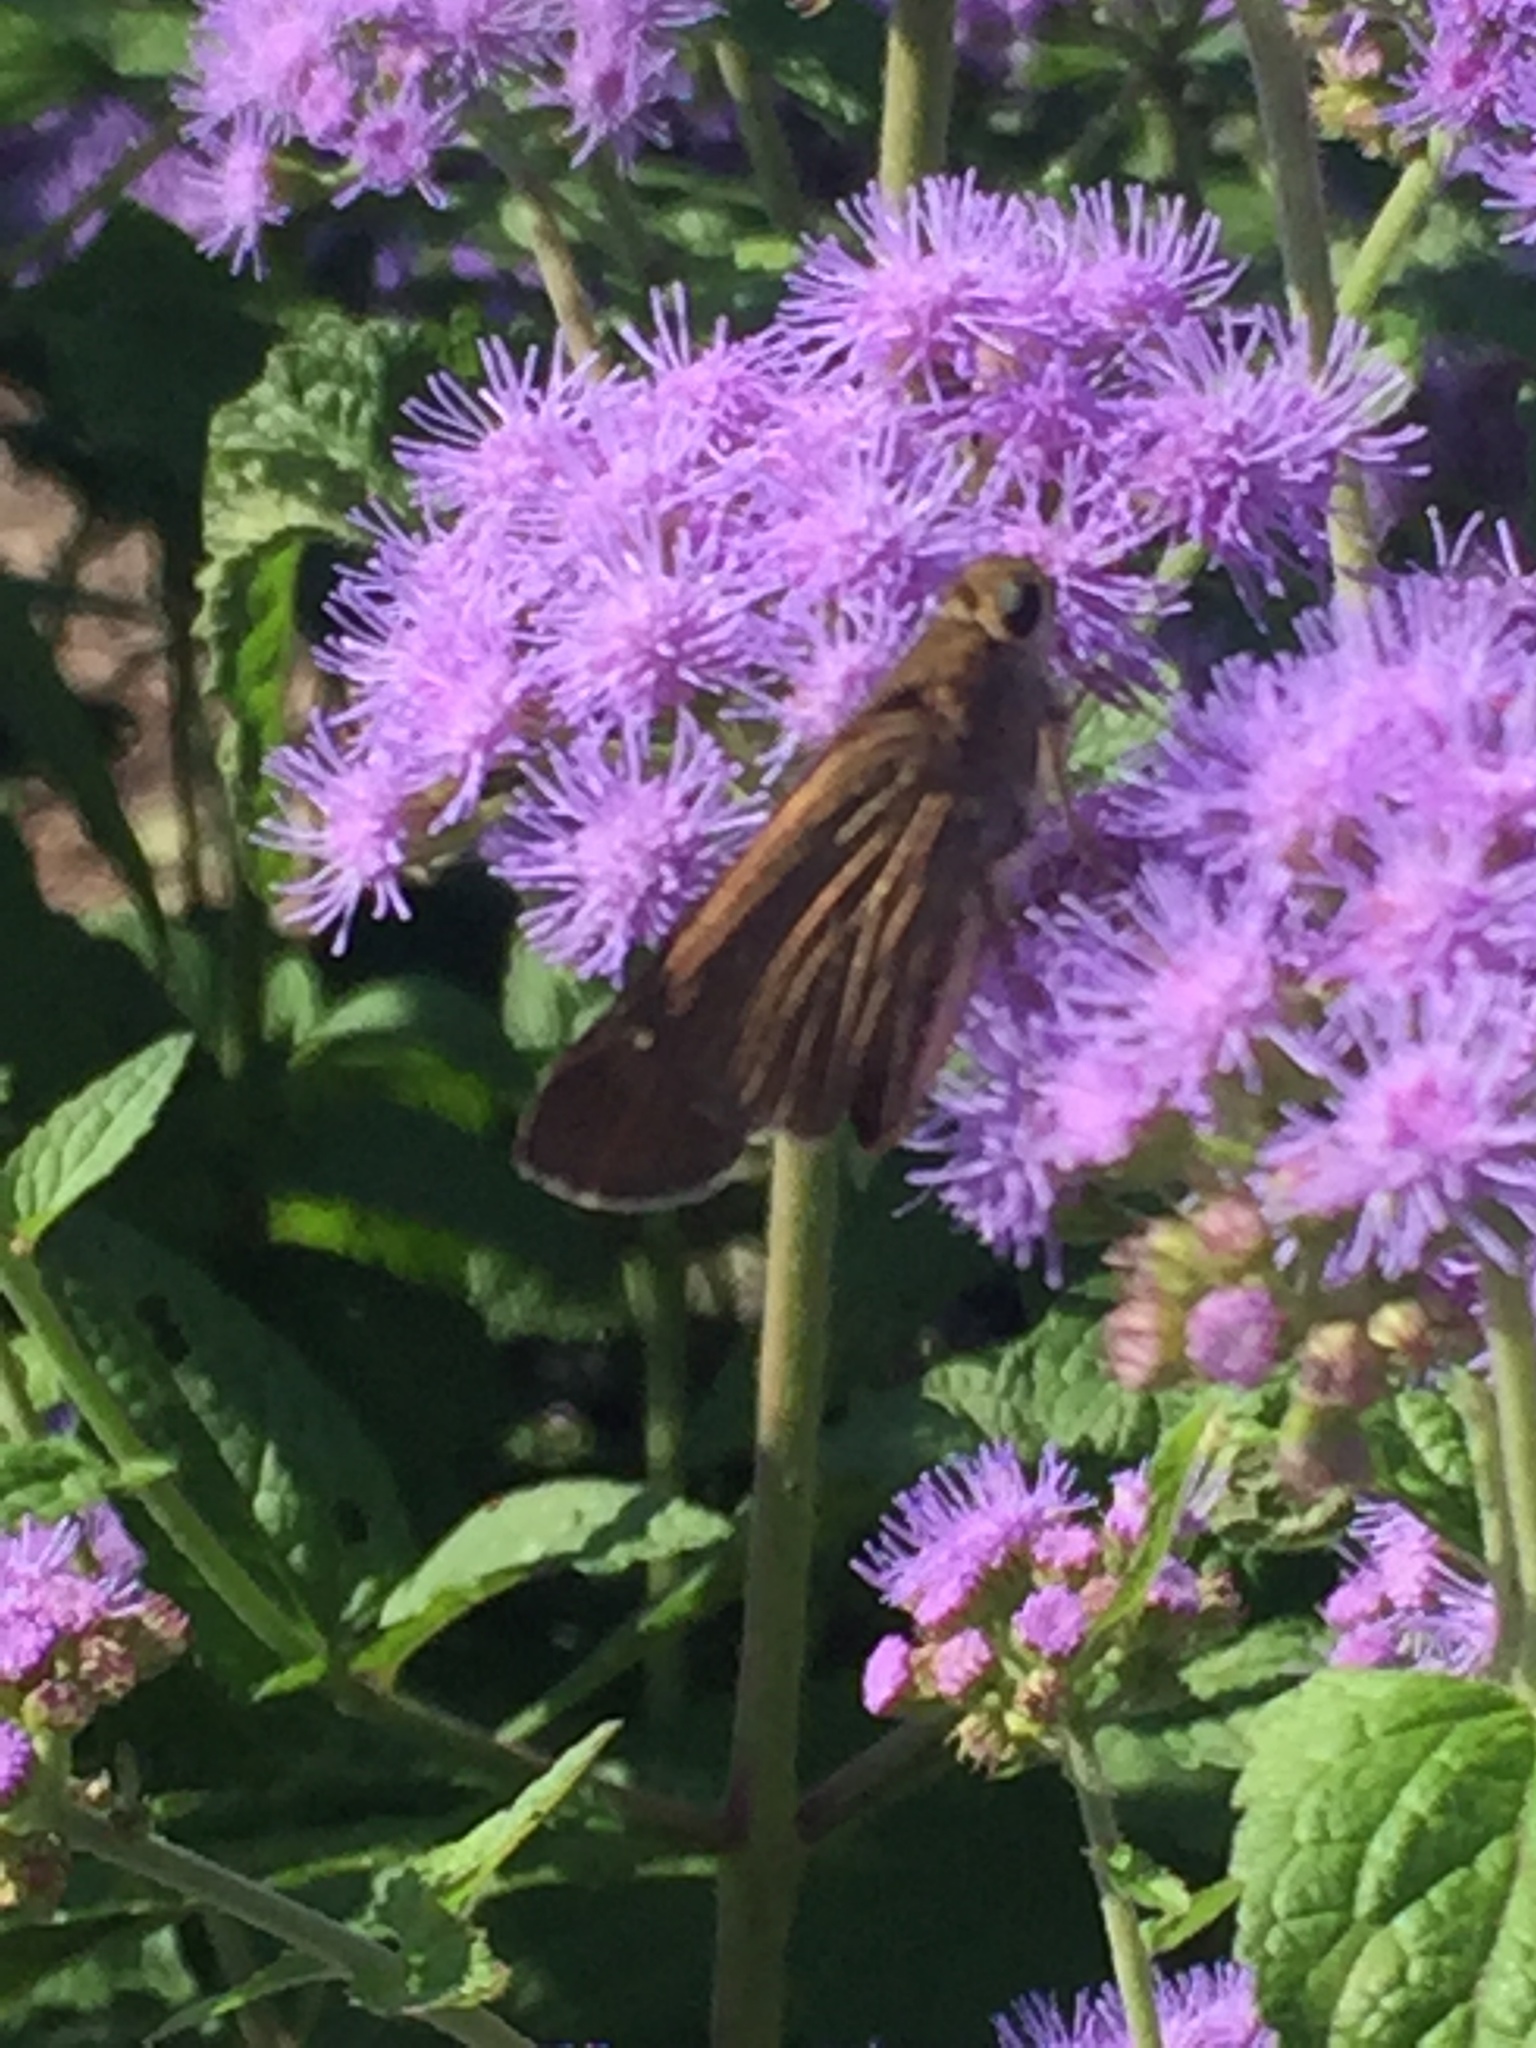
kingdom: Animalia
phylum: Arthropoda
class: Insecta
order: Lepidoptera
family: Hesperiidae
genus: Panoquina
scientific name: Panoquina ocola
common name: Ocola skipper
